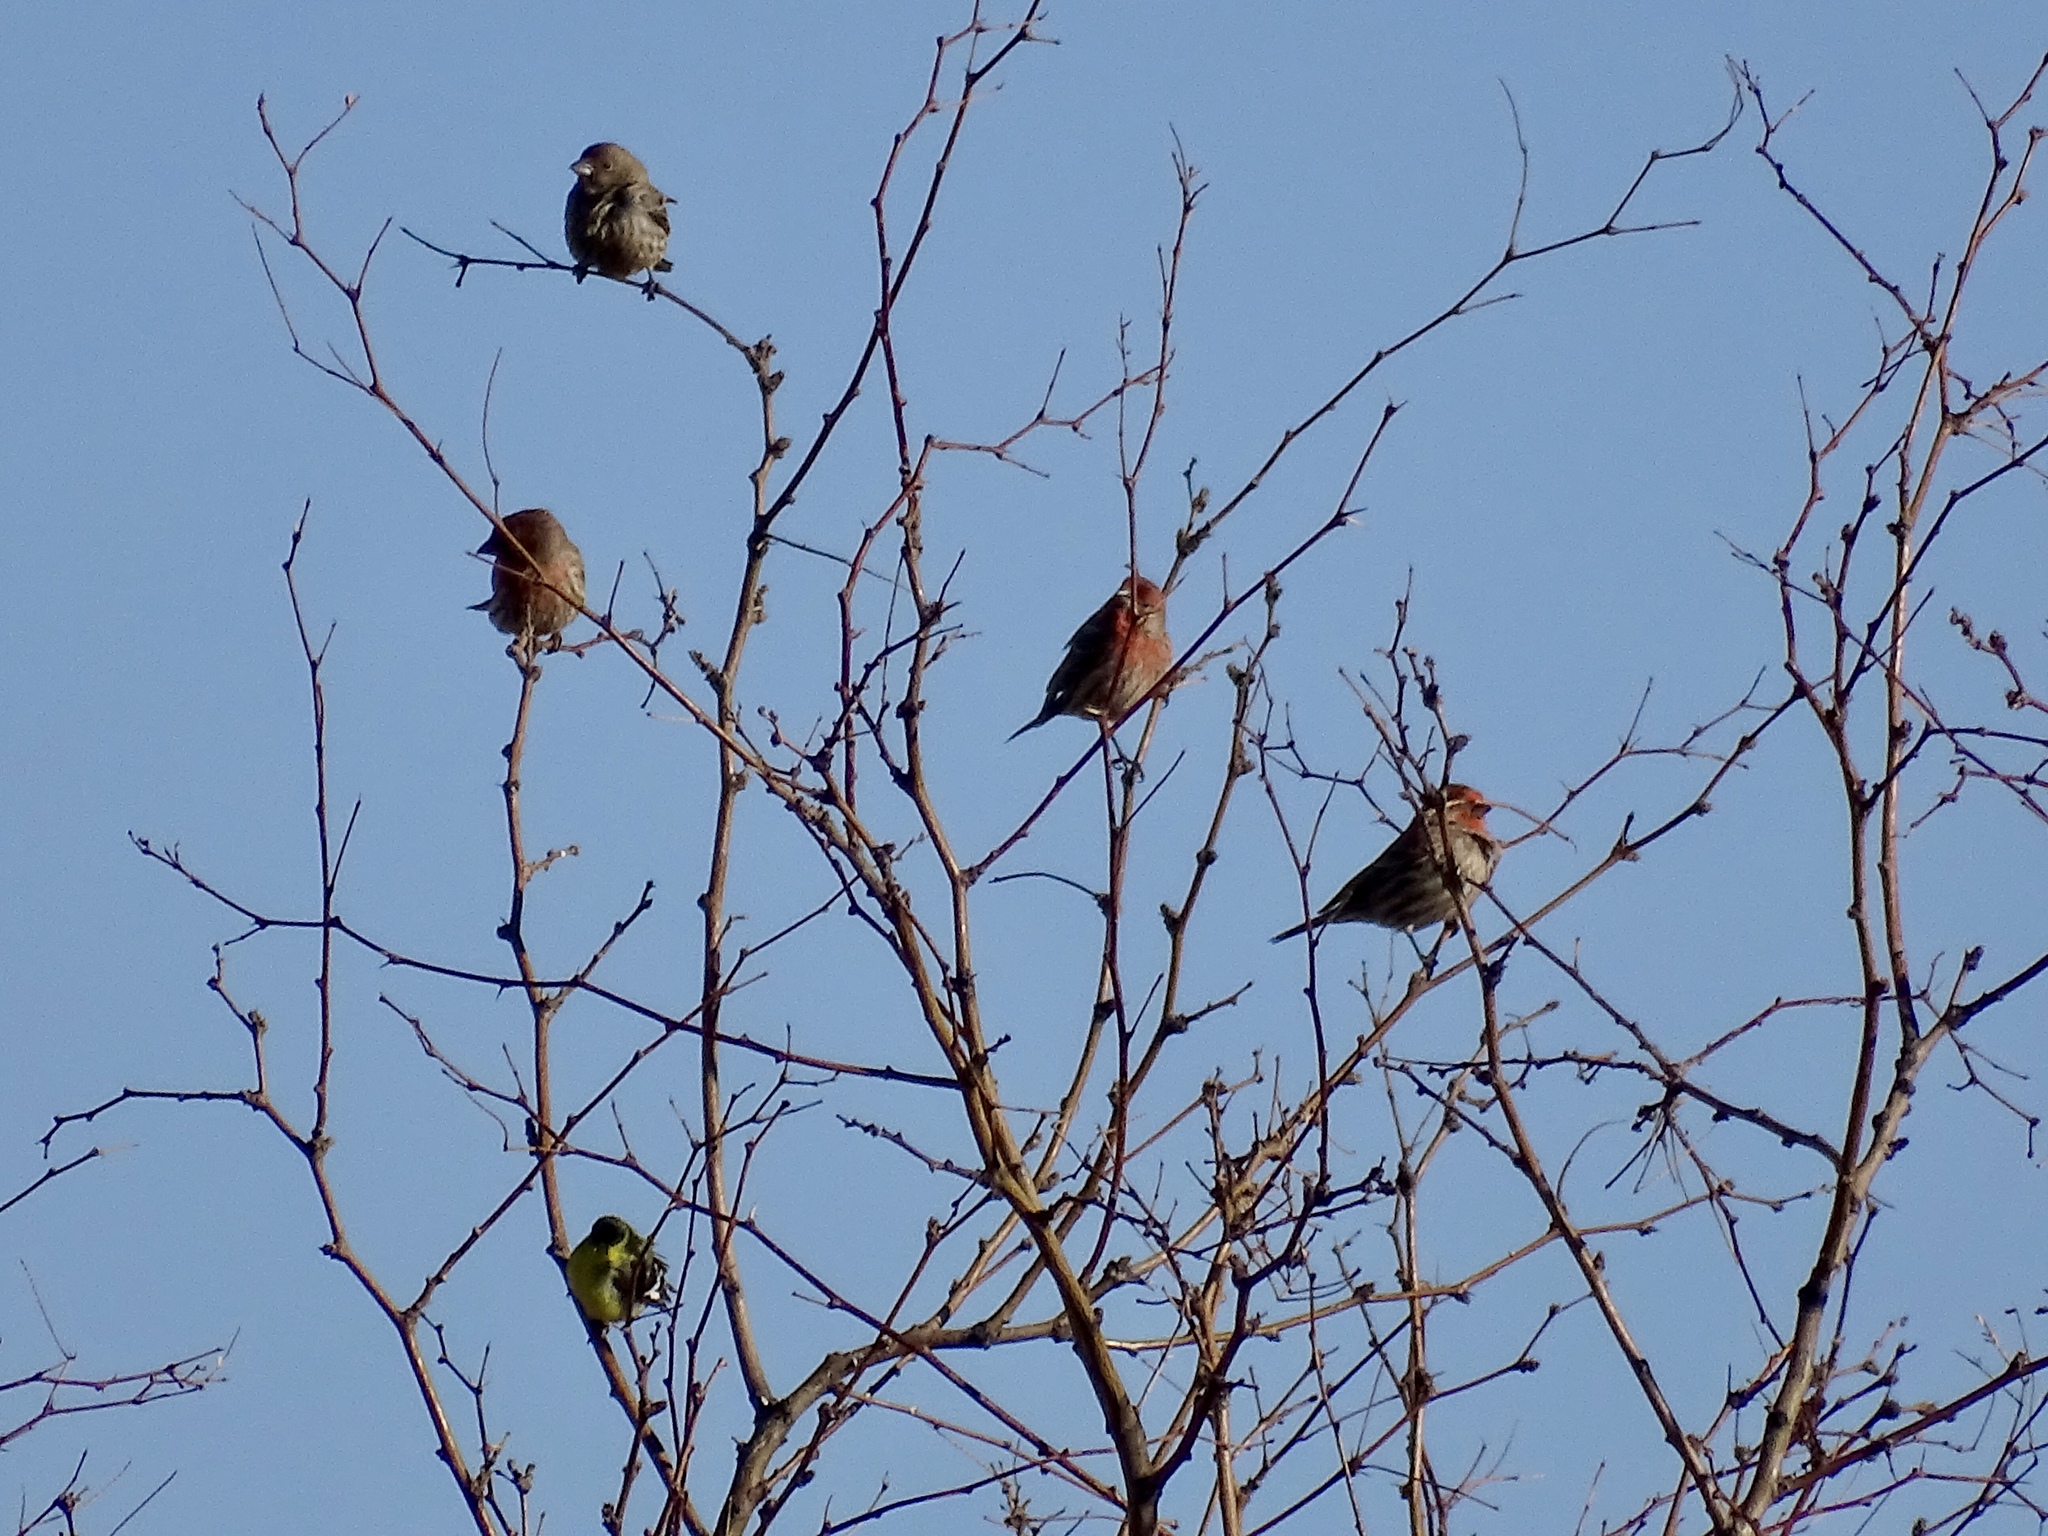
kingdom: Animalia
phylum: Chordata
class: Aves
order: Passeriformes
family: Fringillidae
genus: Haemorhous
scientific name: Haemorhous mexicanus
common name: House finch
